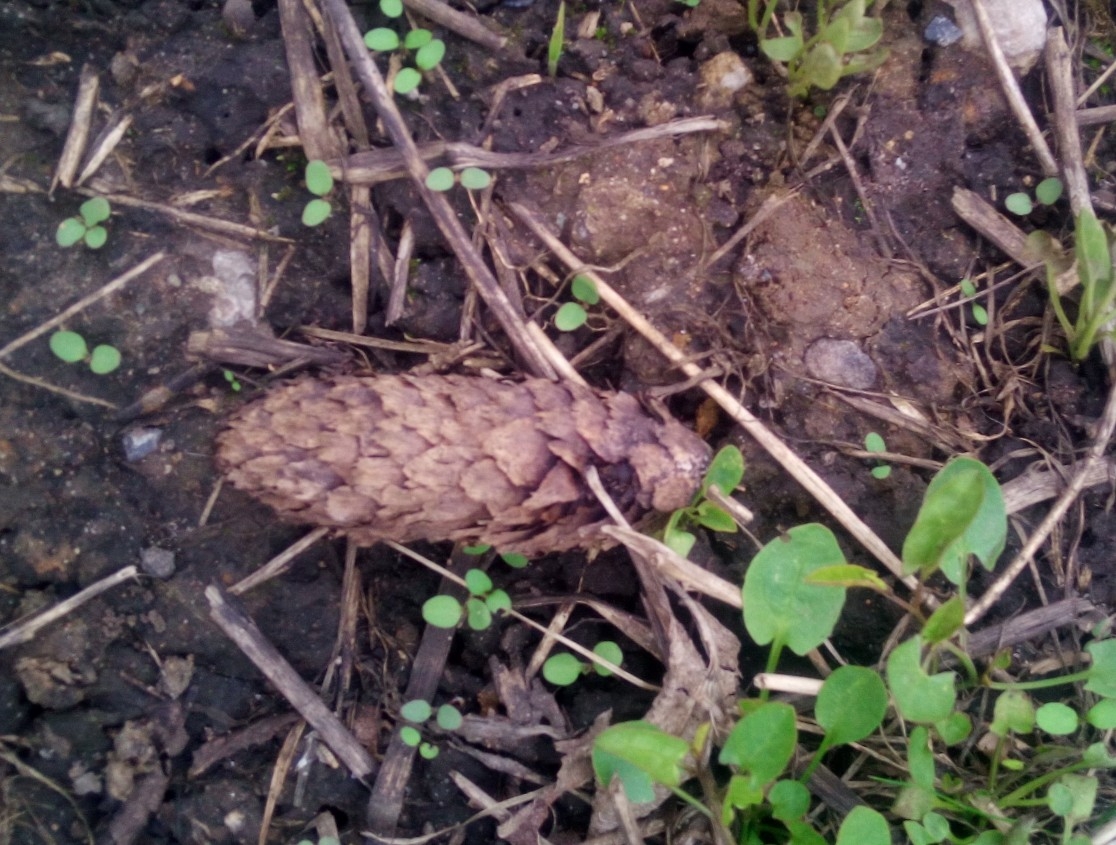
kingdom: Plantae
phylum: Tracheophyta
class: Pinopsida
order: Pinales
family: Pinaceae
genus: Picea
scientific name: Picea abies
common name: Norway spruce
